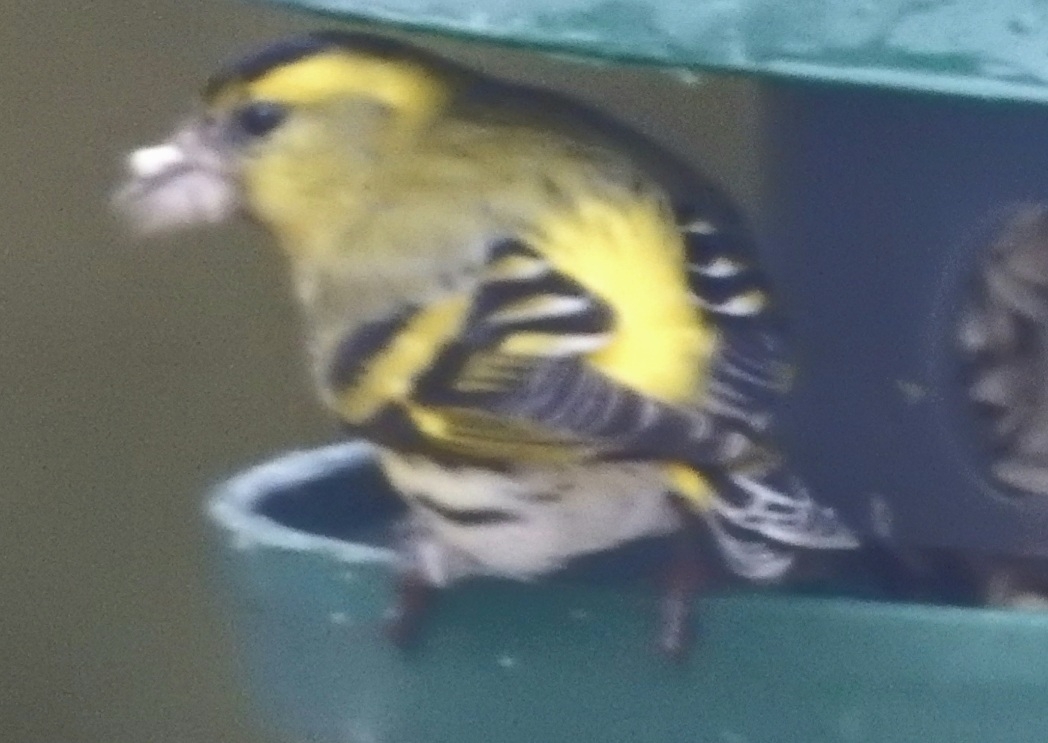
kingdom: Animalia
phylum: Chordata
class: Aves
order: Passeriformes
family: Fringillidae
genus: Spinus
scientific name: Spinus spinus
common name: Eurasian siskin
